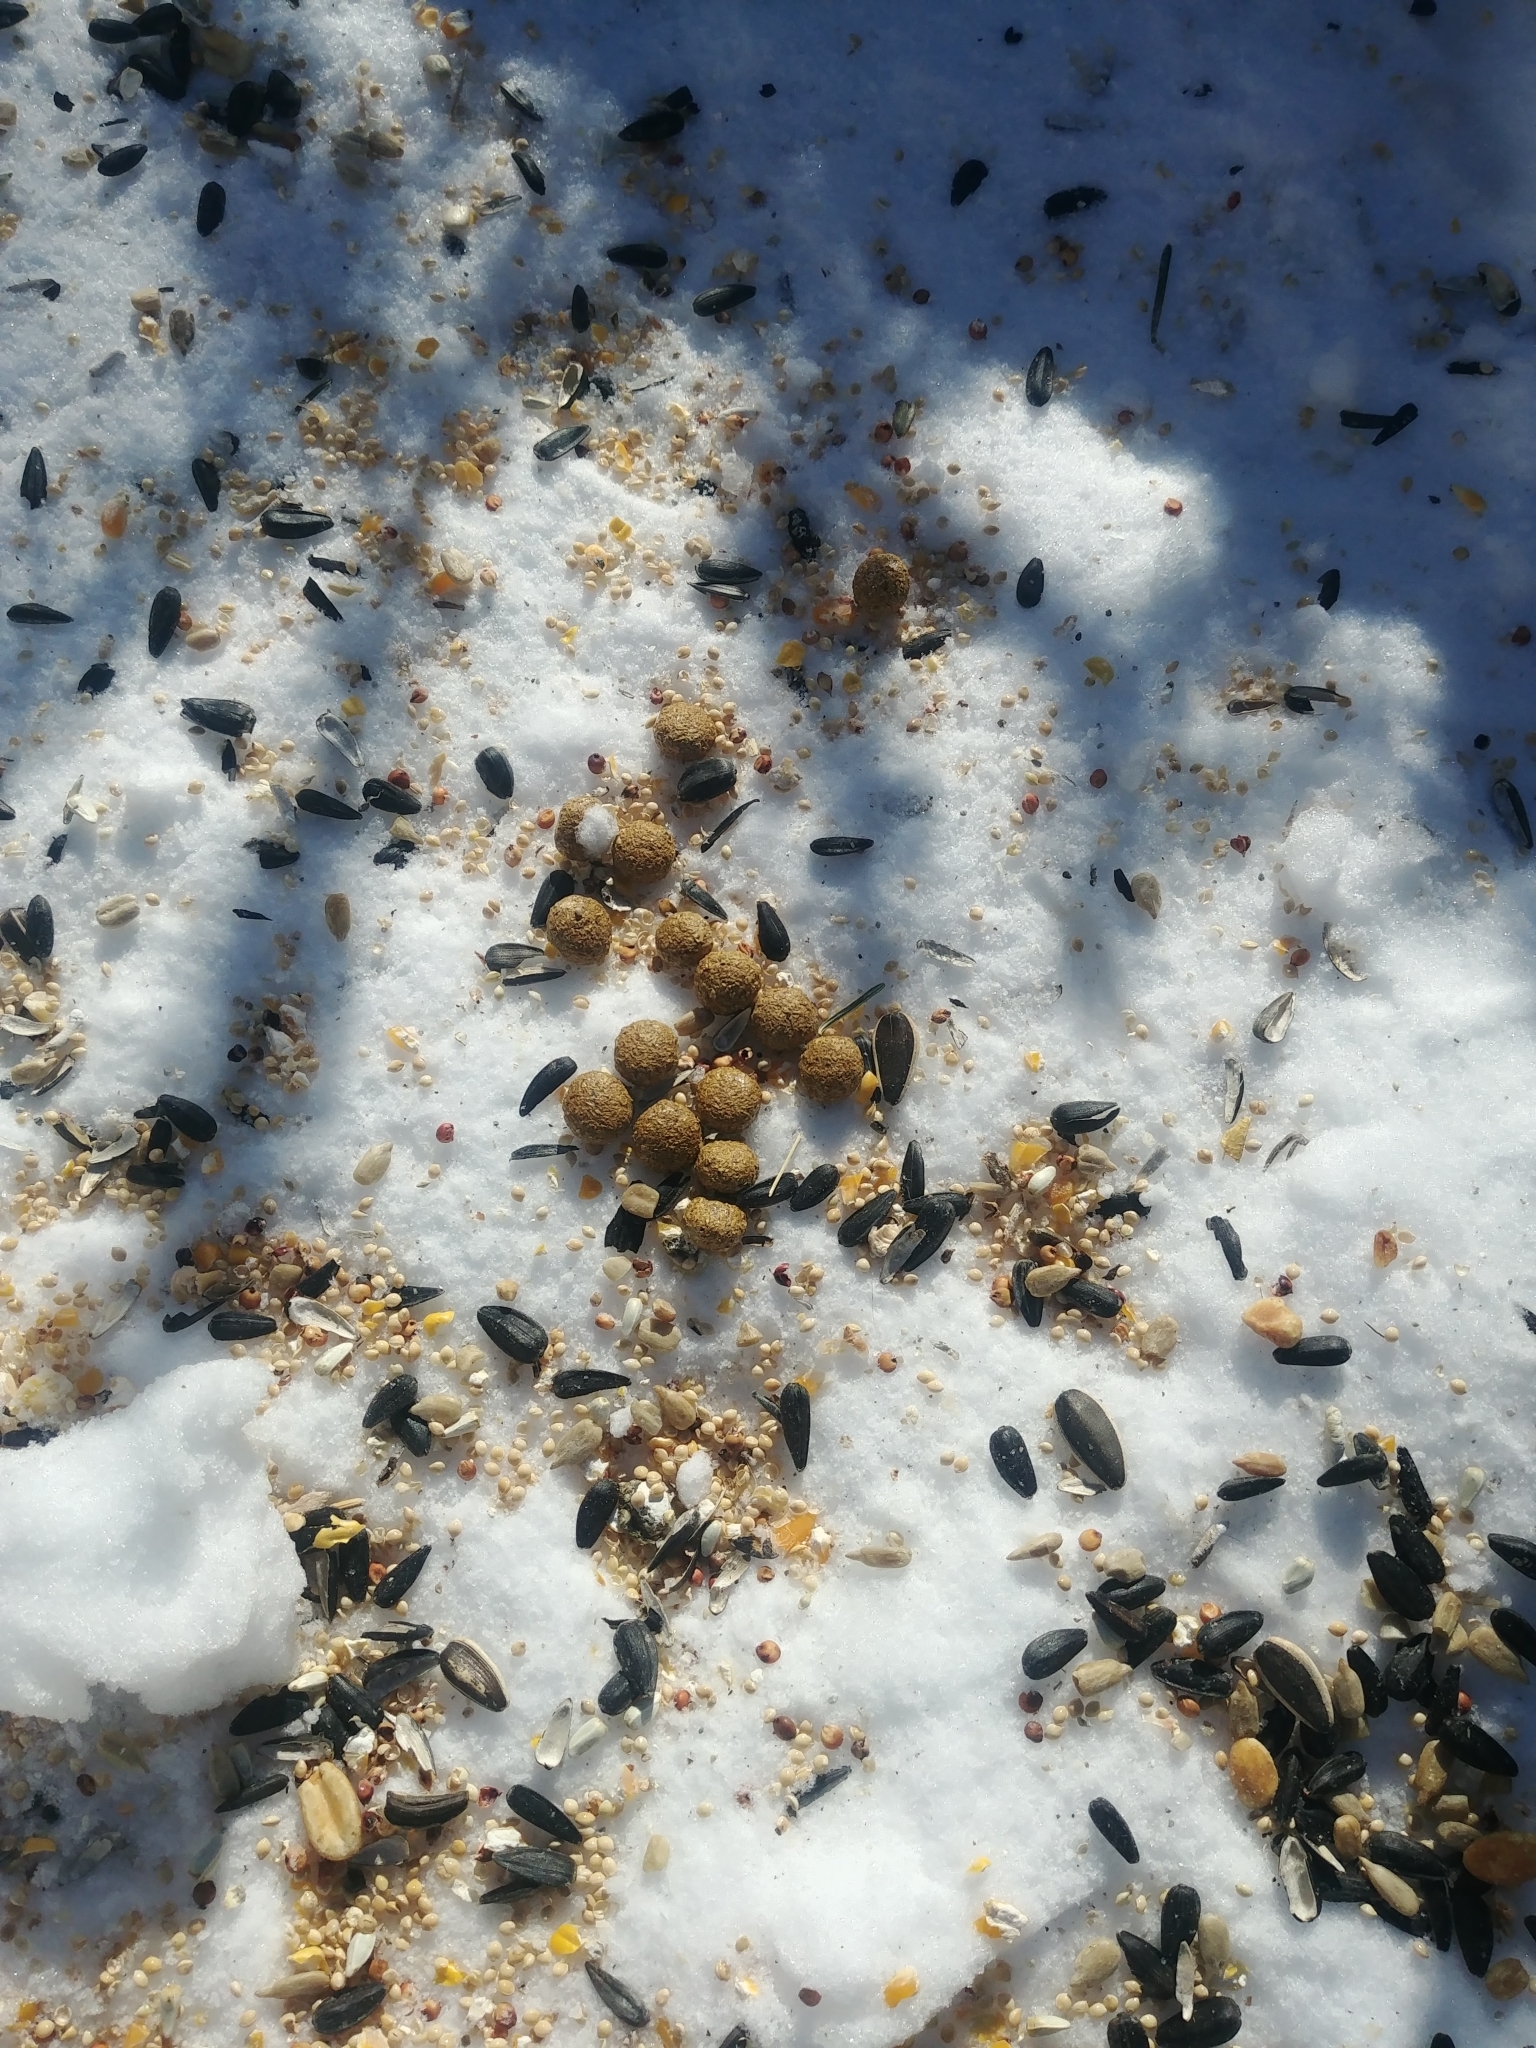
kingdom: Animalia
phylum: Chordata
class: Mammalia
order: Lagomorpha
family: Leporidae
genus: Sylvilagus
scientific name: Sylvilagus floridanus
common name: Eastern cottontail
